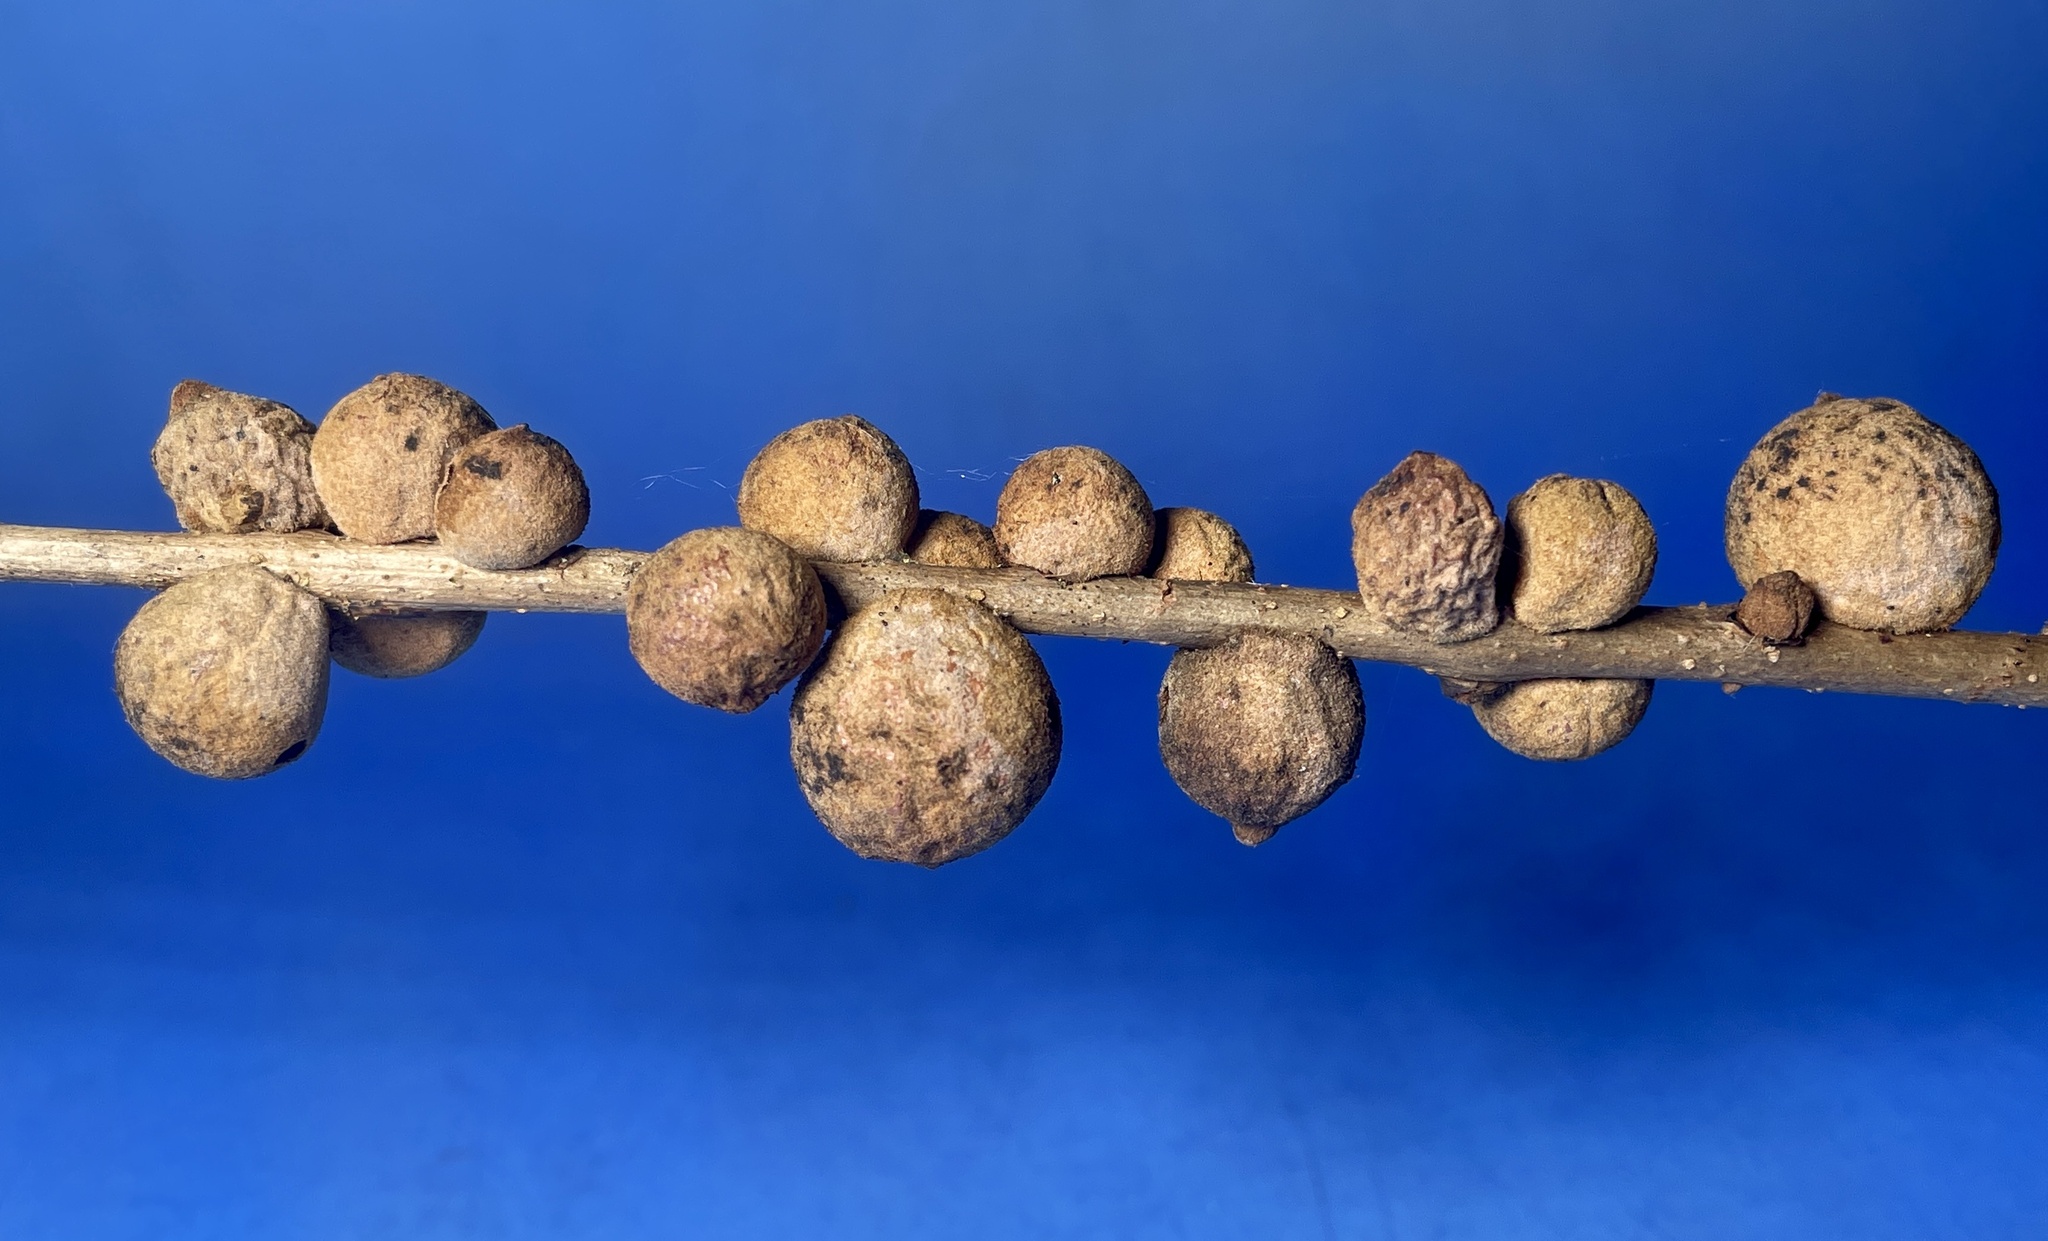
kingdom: Animalia
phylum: Arthropoda
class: Insecta
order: Hymenoptera
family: Cynipidae
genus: Disholcaspis
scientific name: Disholcaspis
